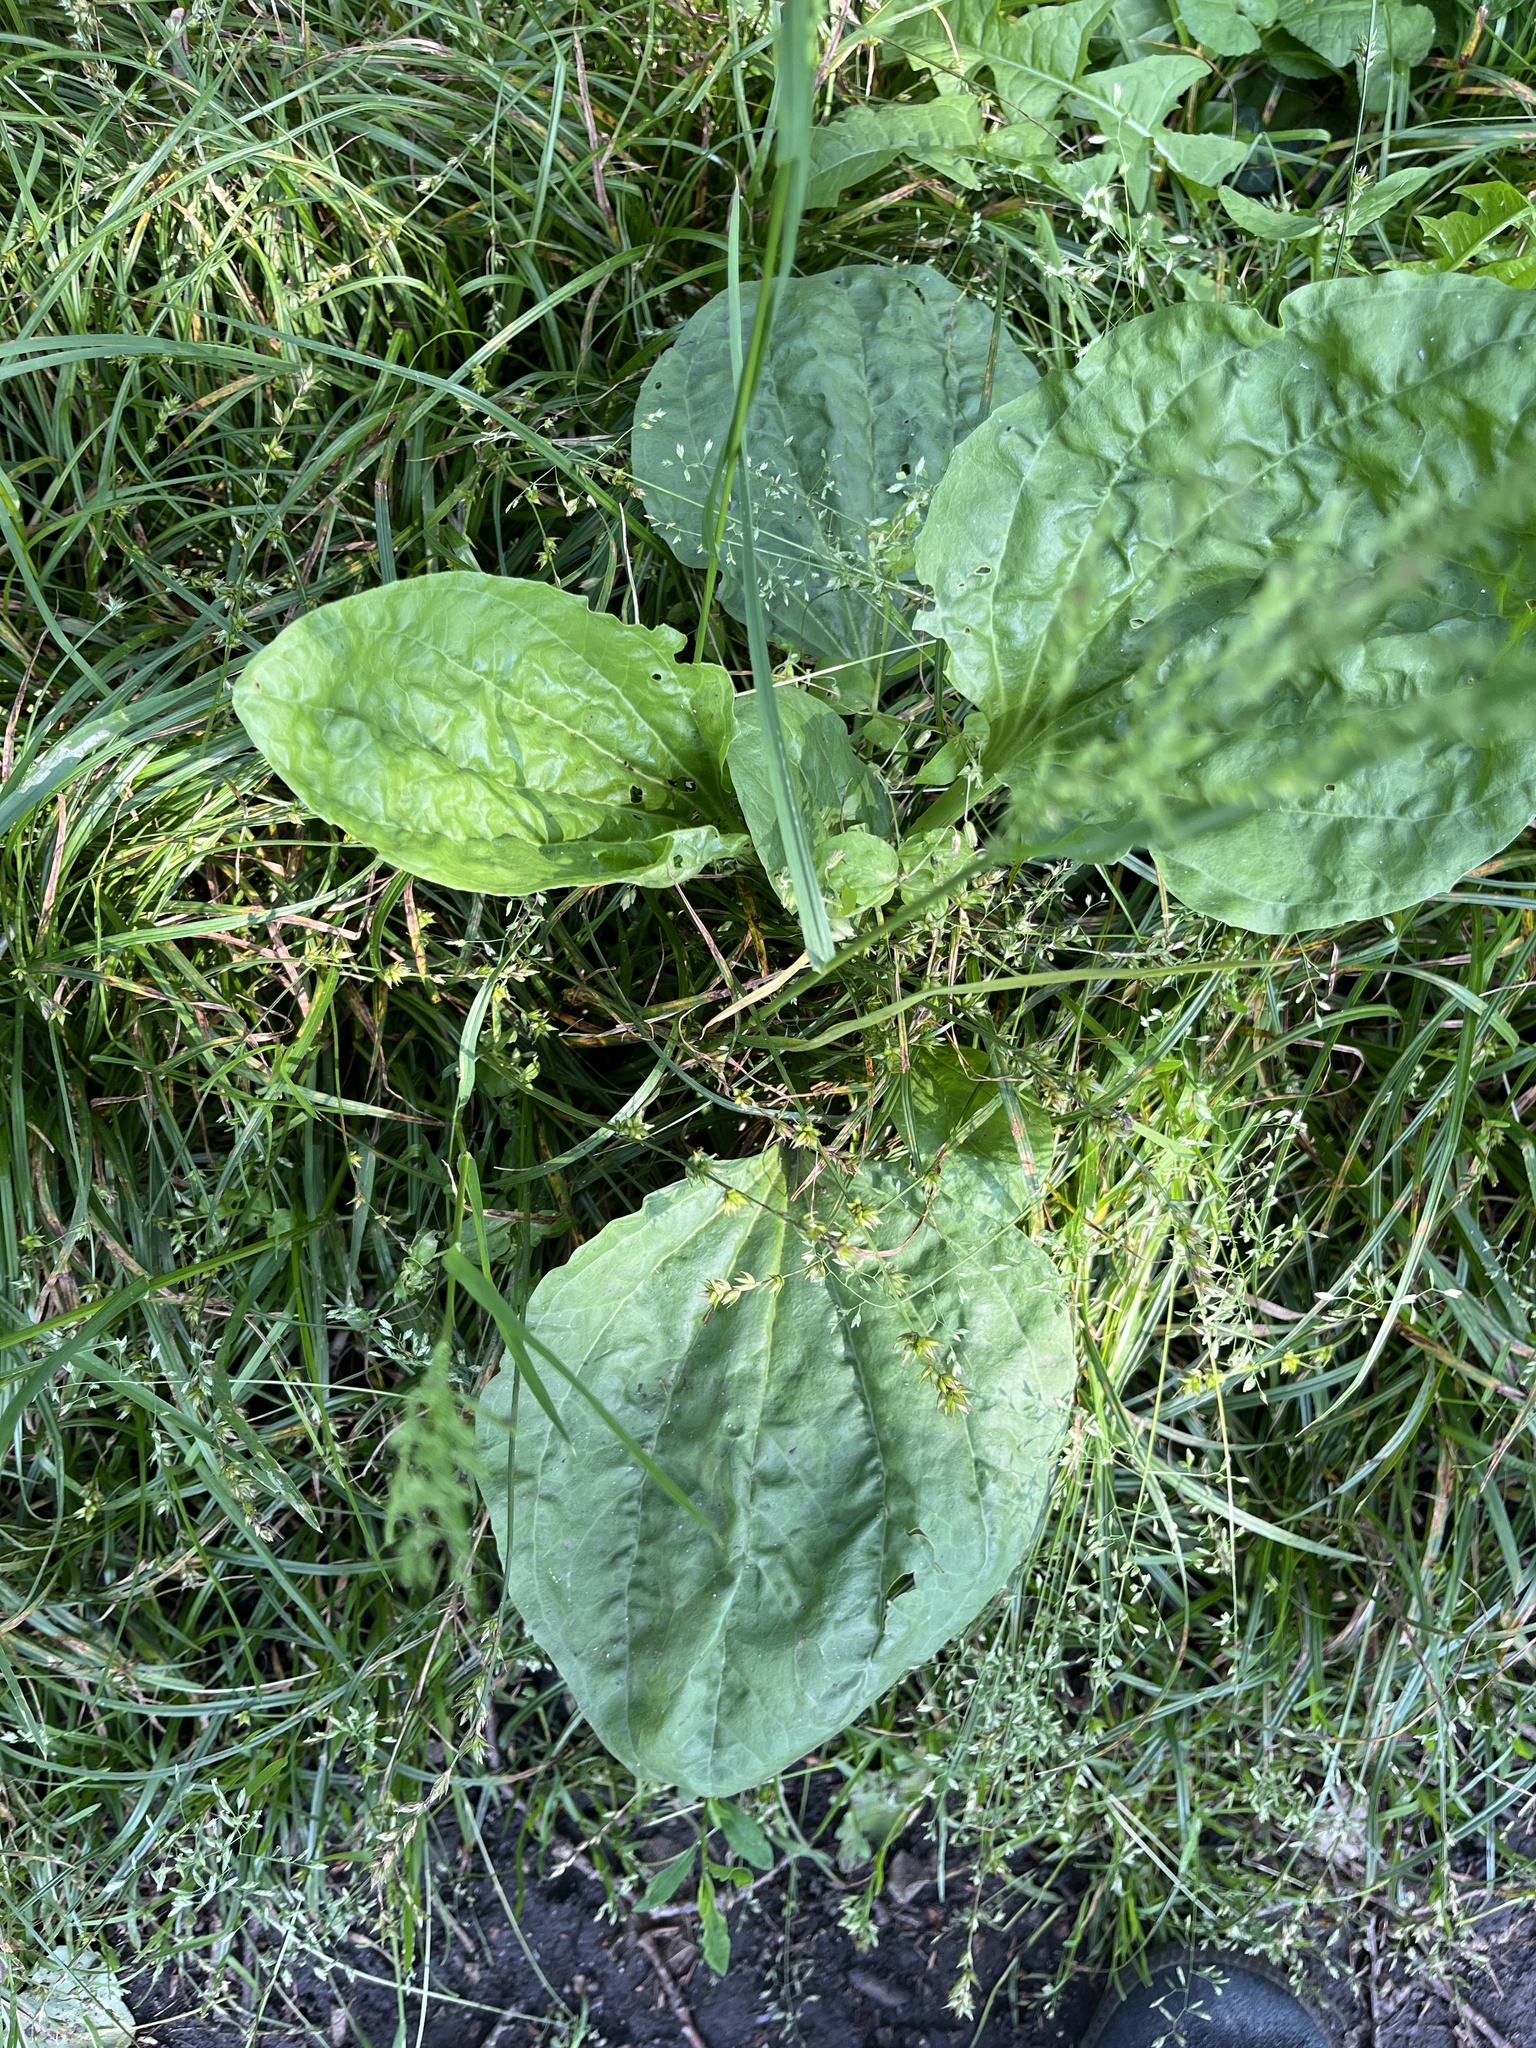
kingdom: Plantae
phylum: Tracheophyta
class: Magnoliopsida
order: Lamiales
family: Plantaginaceae
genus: Plantago
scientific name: Plantago major
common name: Common plantain
